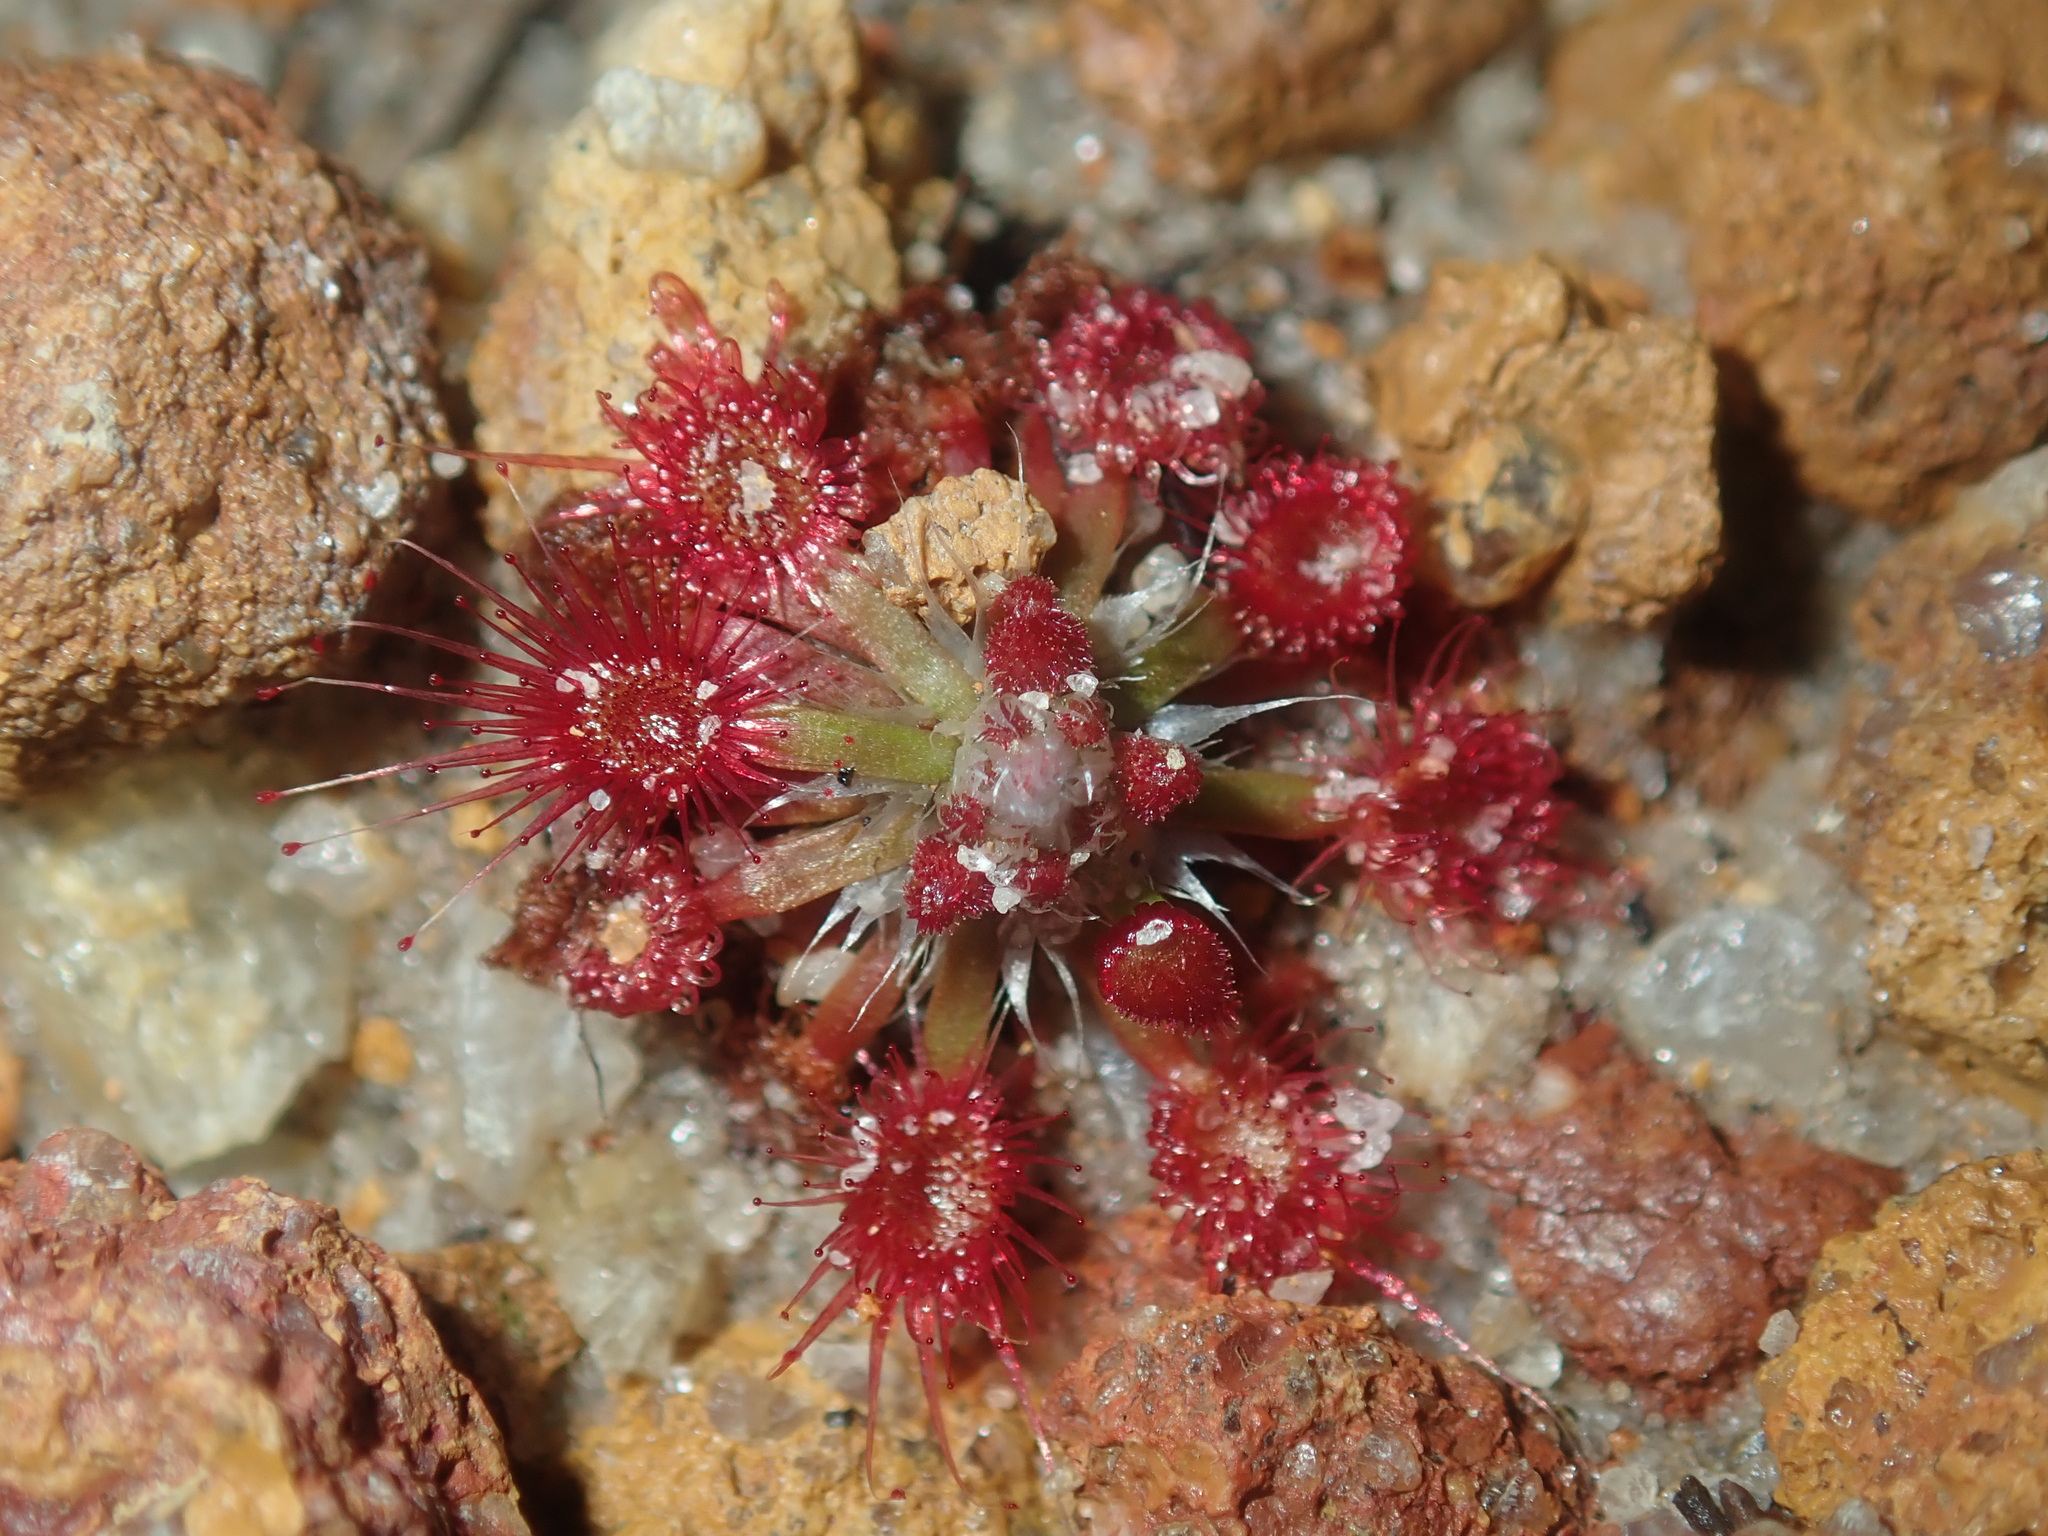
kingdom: Plantae
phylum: Tracheophyta
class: Magnoliopsida
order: Caryophyllales
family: Droseraceae
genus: Drosera
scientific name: Drosera coomallo
